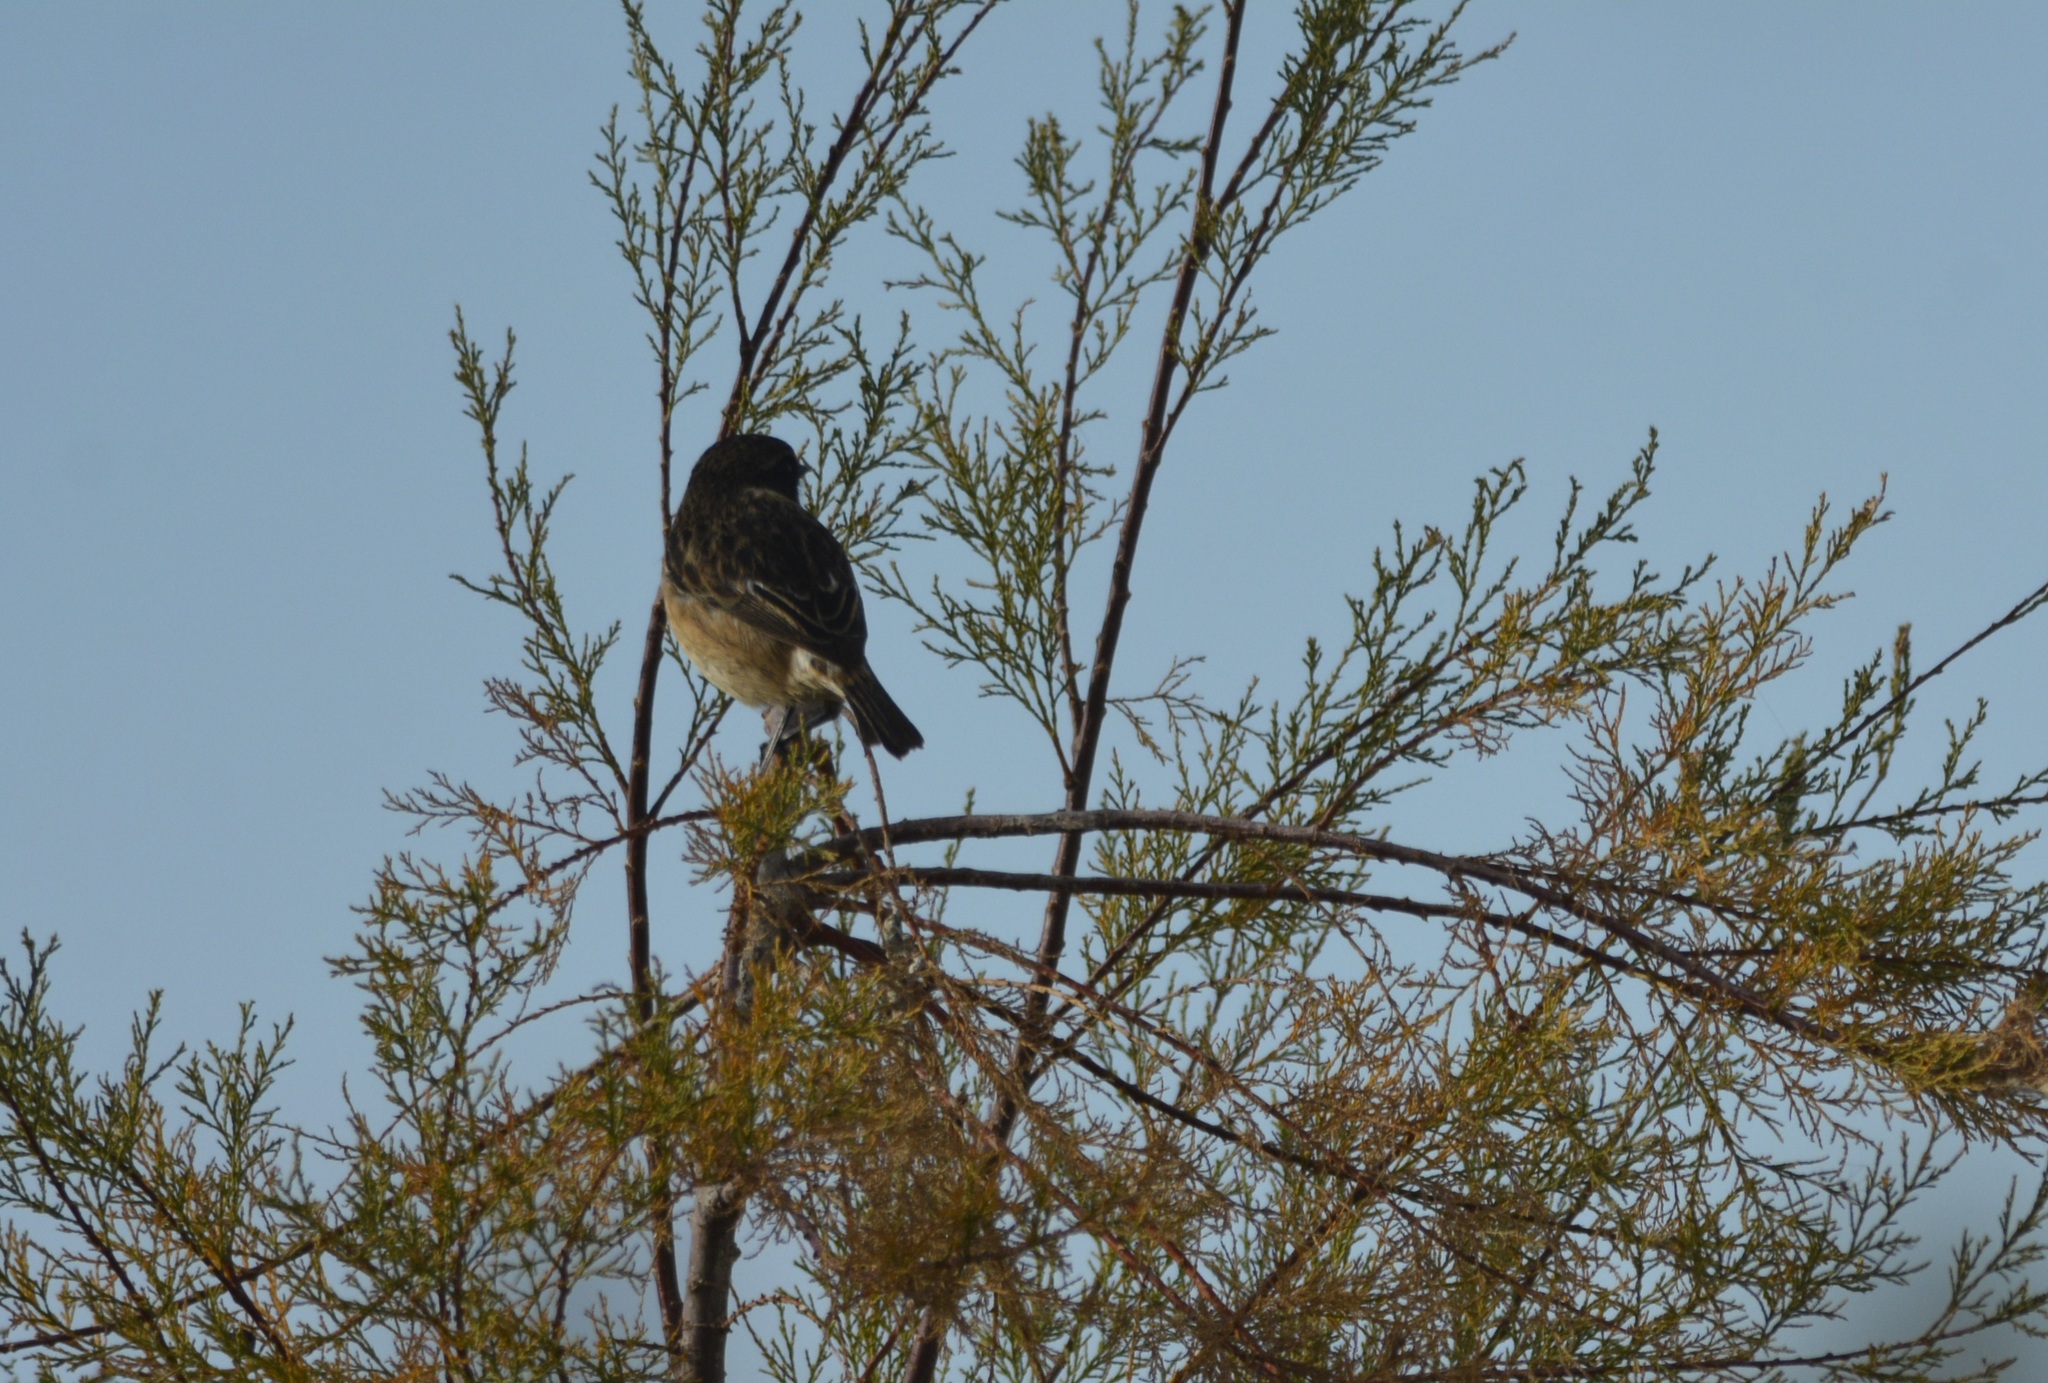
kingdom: Animalia
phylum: Chordata
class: Aves
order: Passeriformes
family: Muscicapidae
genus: Saxicola
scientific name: Saxicola rubicola
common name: European stonechat
